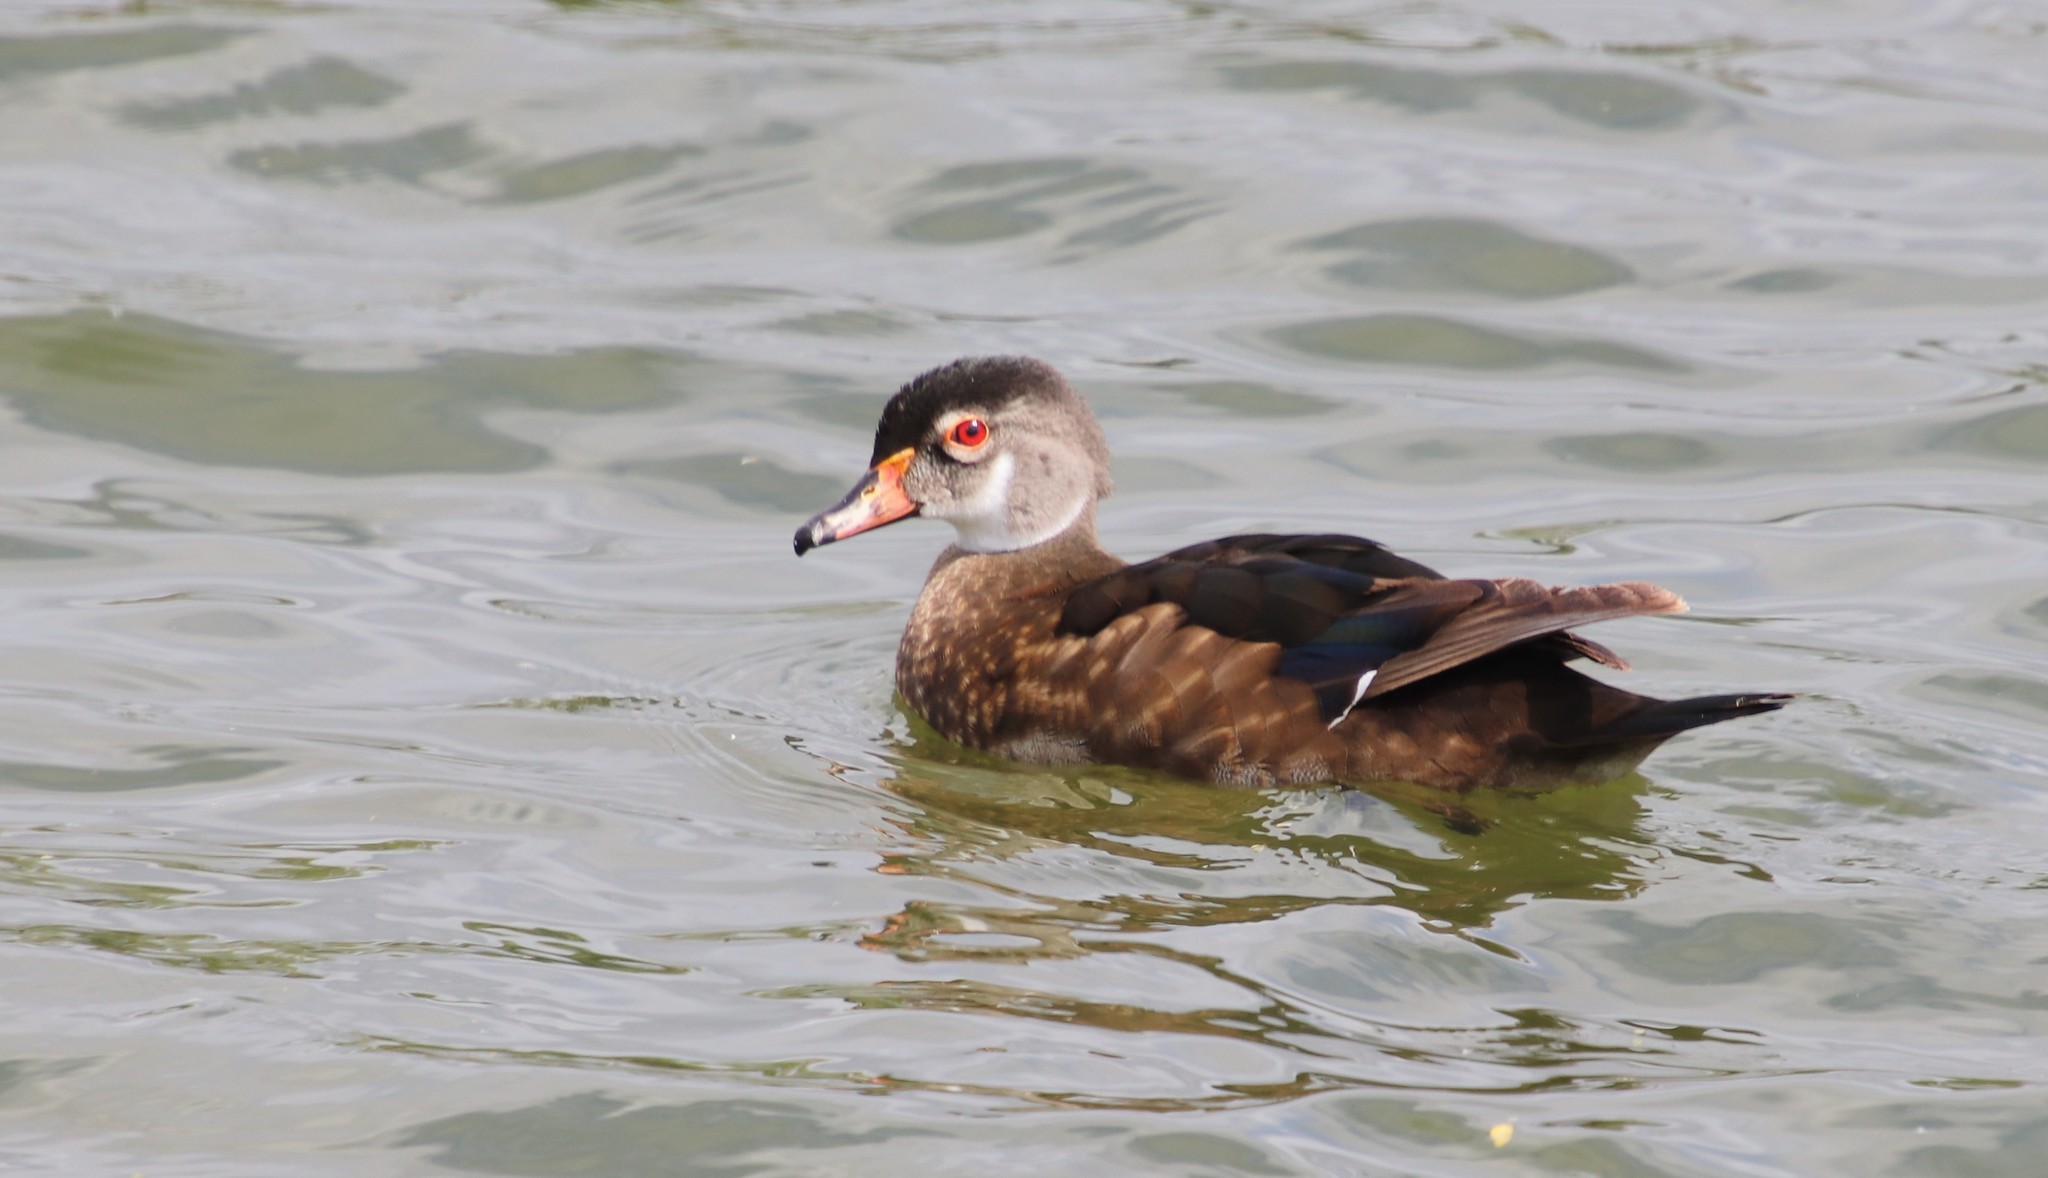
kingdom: Animalia
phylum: Chordata
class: Aves
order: Anseriformes
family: Anatidae
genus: Aix
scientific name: Aix sponsa
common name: Wood duck
